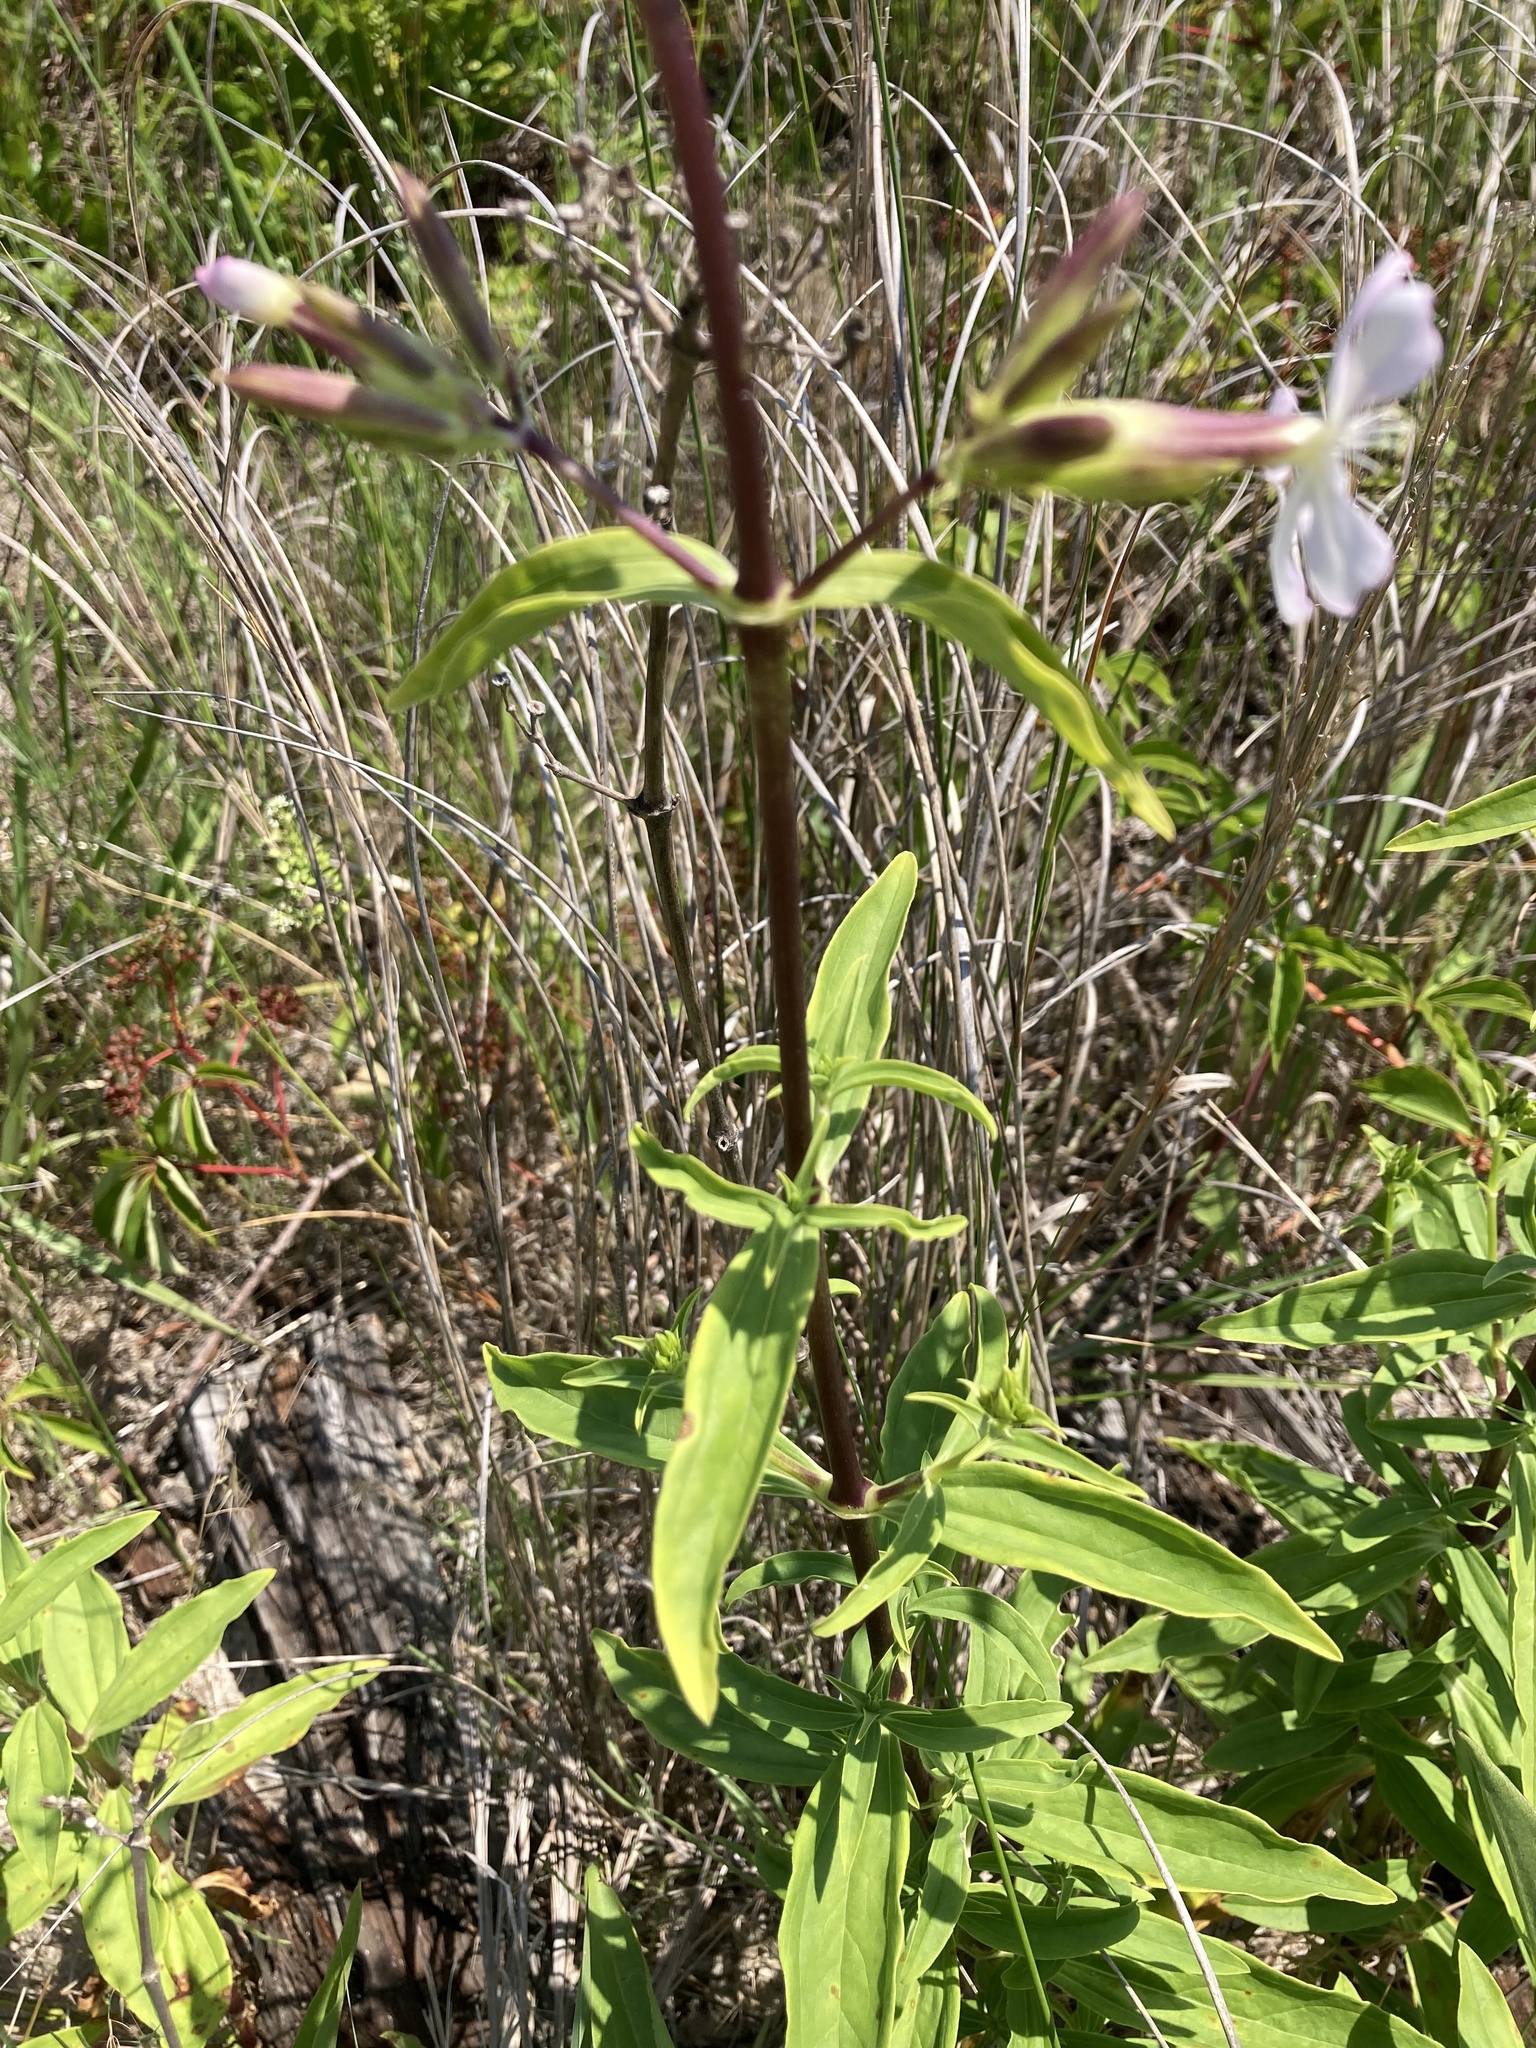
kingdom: Plantae
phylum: Tracheophyta
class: Magnoliopsida
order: Caryophyllales
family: Caryophyllaceae
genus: Saponaria
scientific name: Saponaria officinalis
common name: Soapwort
